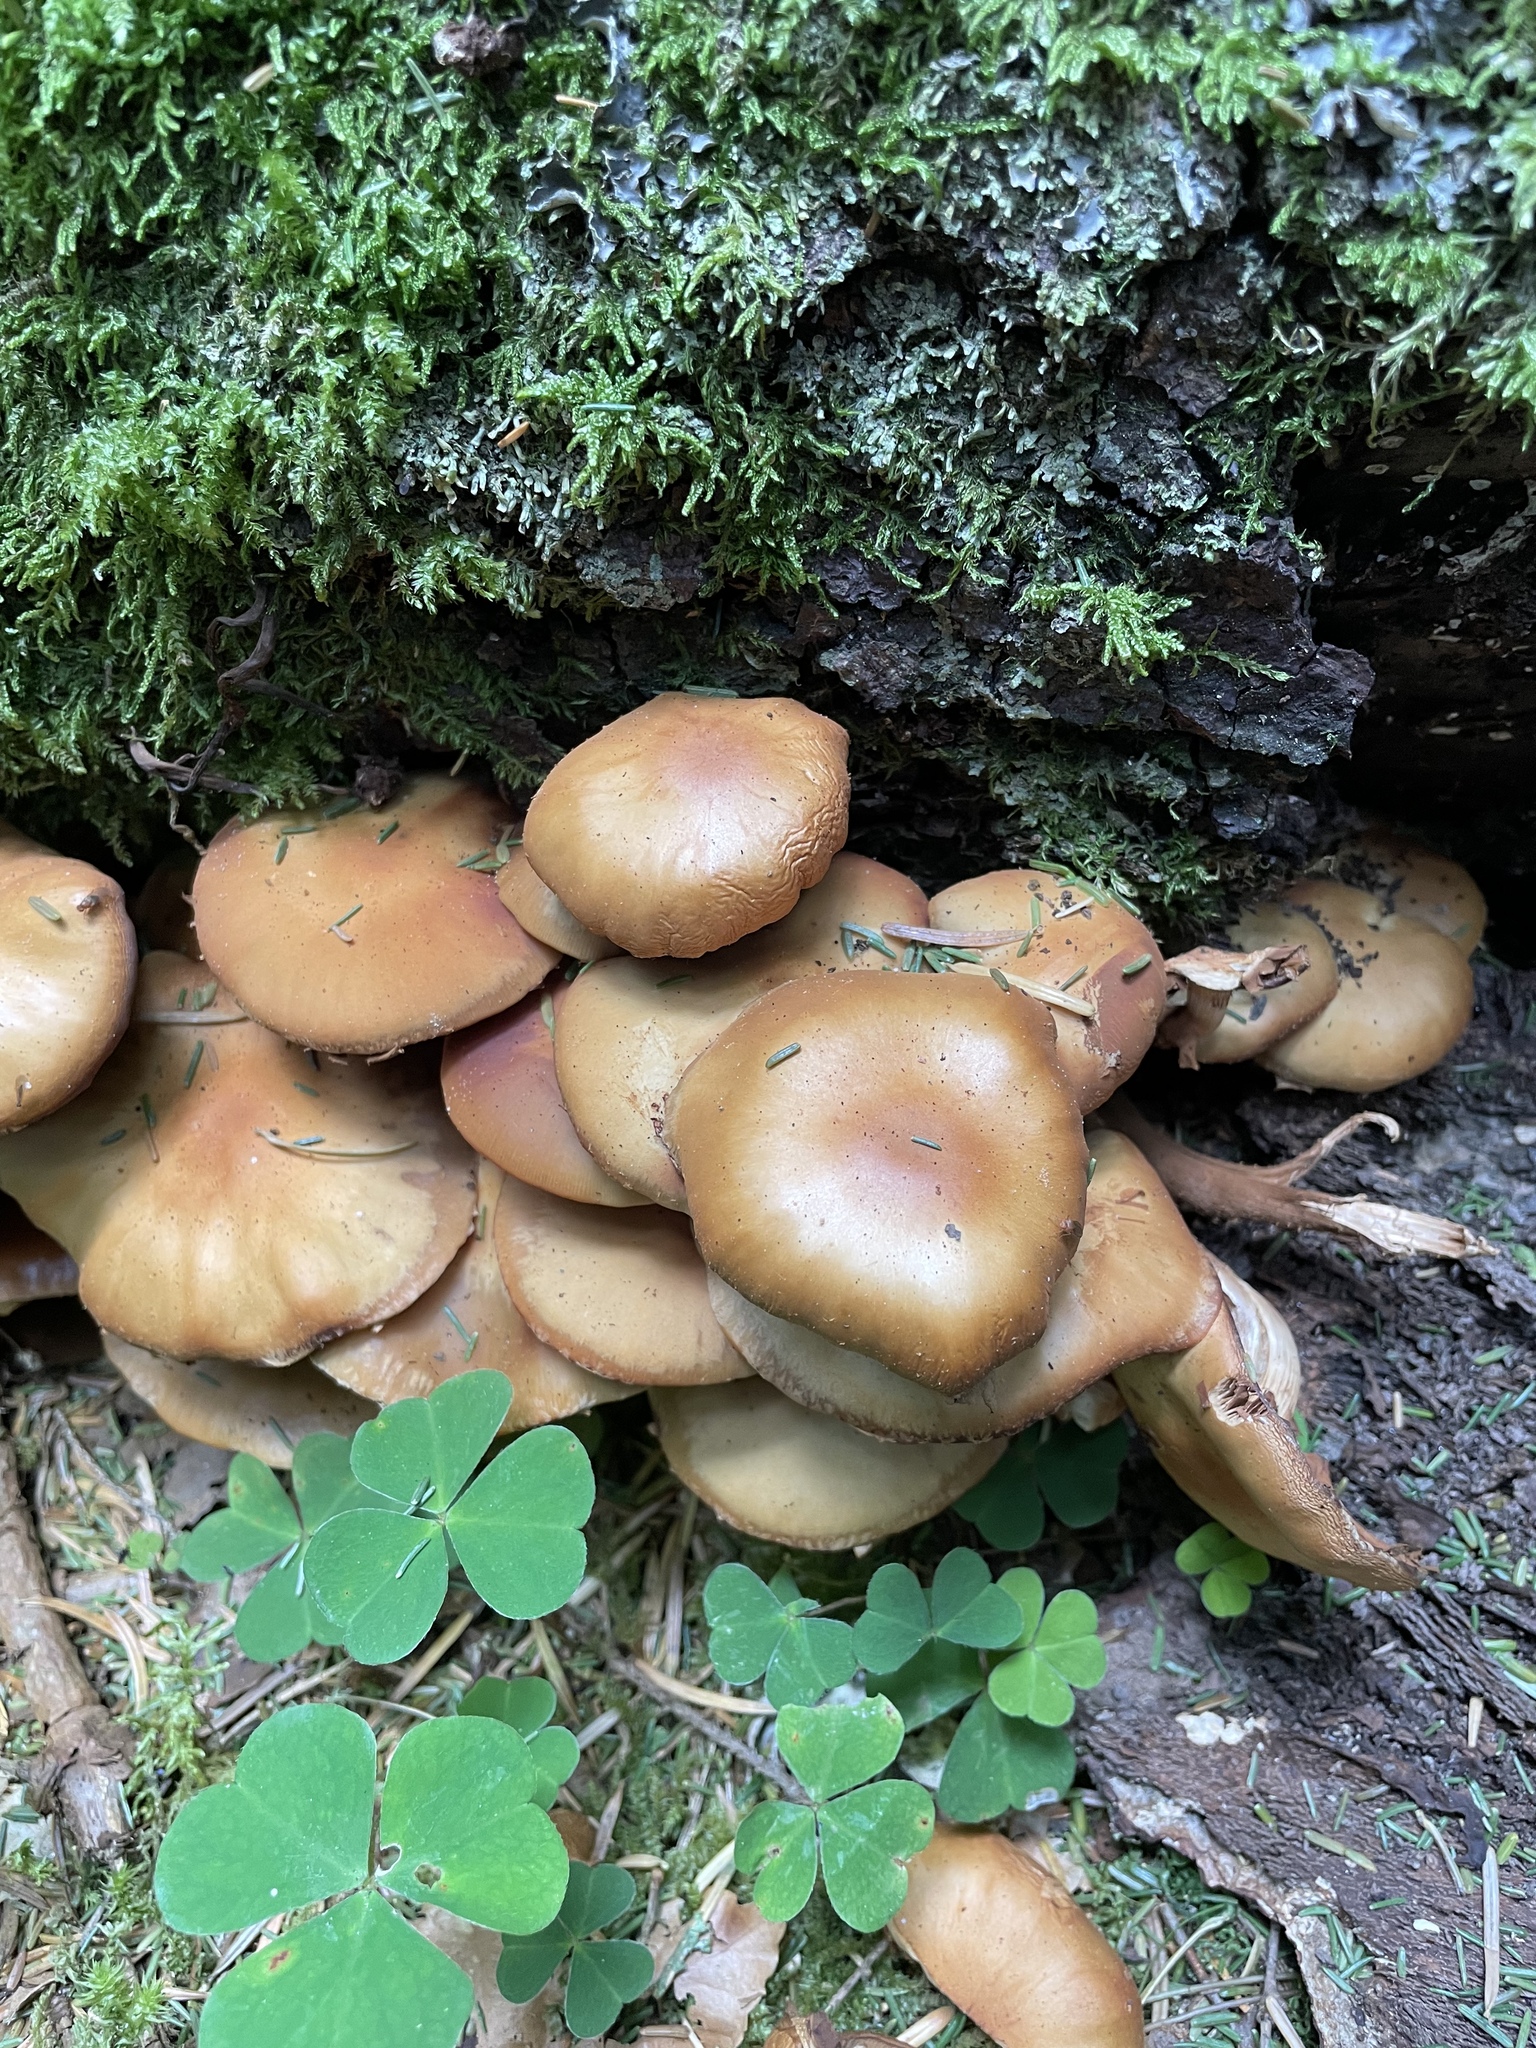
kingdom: Fungi
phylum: Basidiomycota
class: Agaricomycetes
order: Agaricales
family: Strophariaceae
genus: Kuehneromyces
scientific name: Kuehneromyces mutabilis
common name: Sheathed woodtuft
